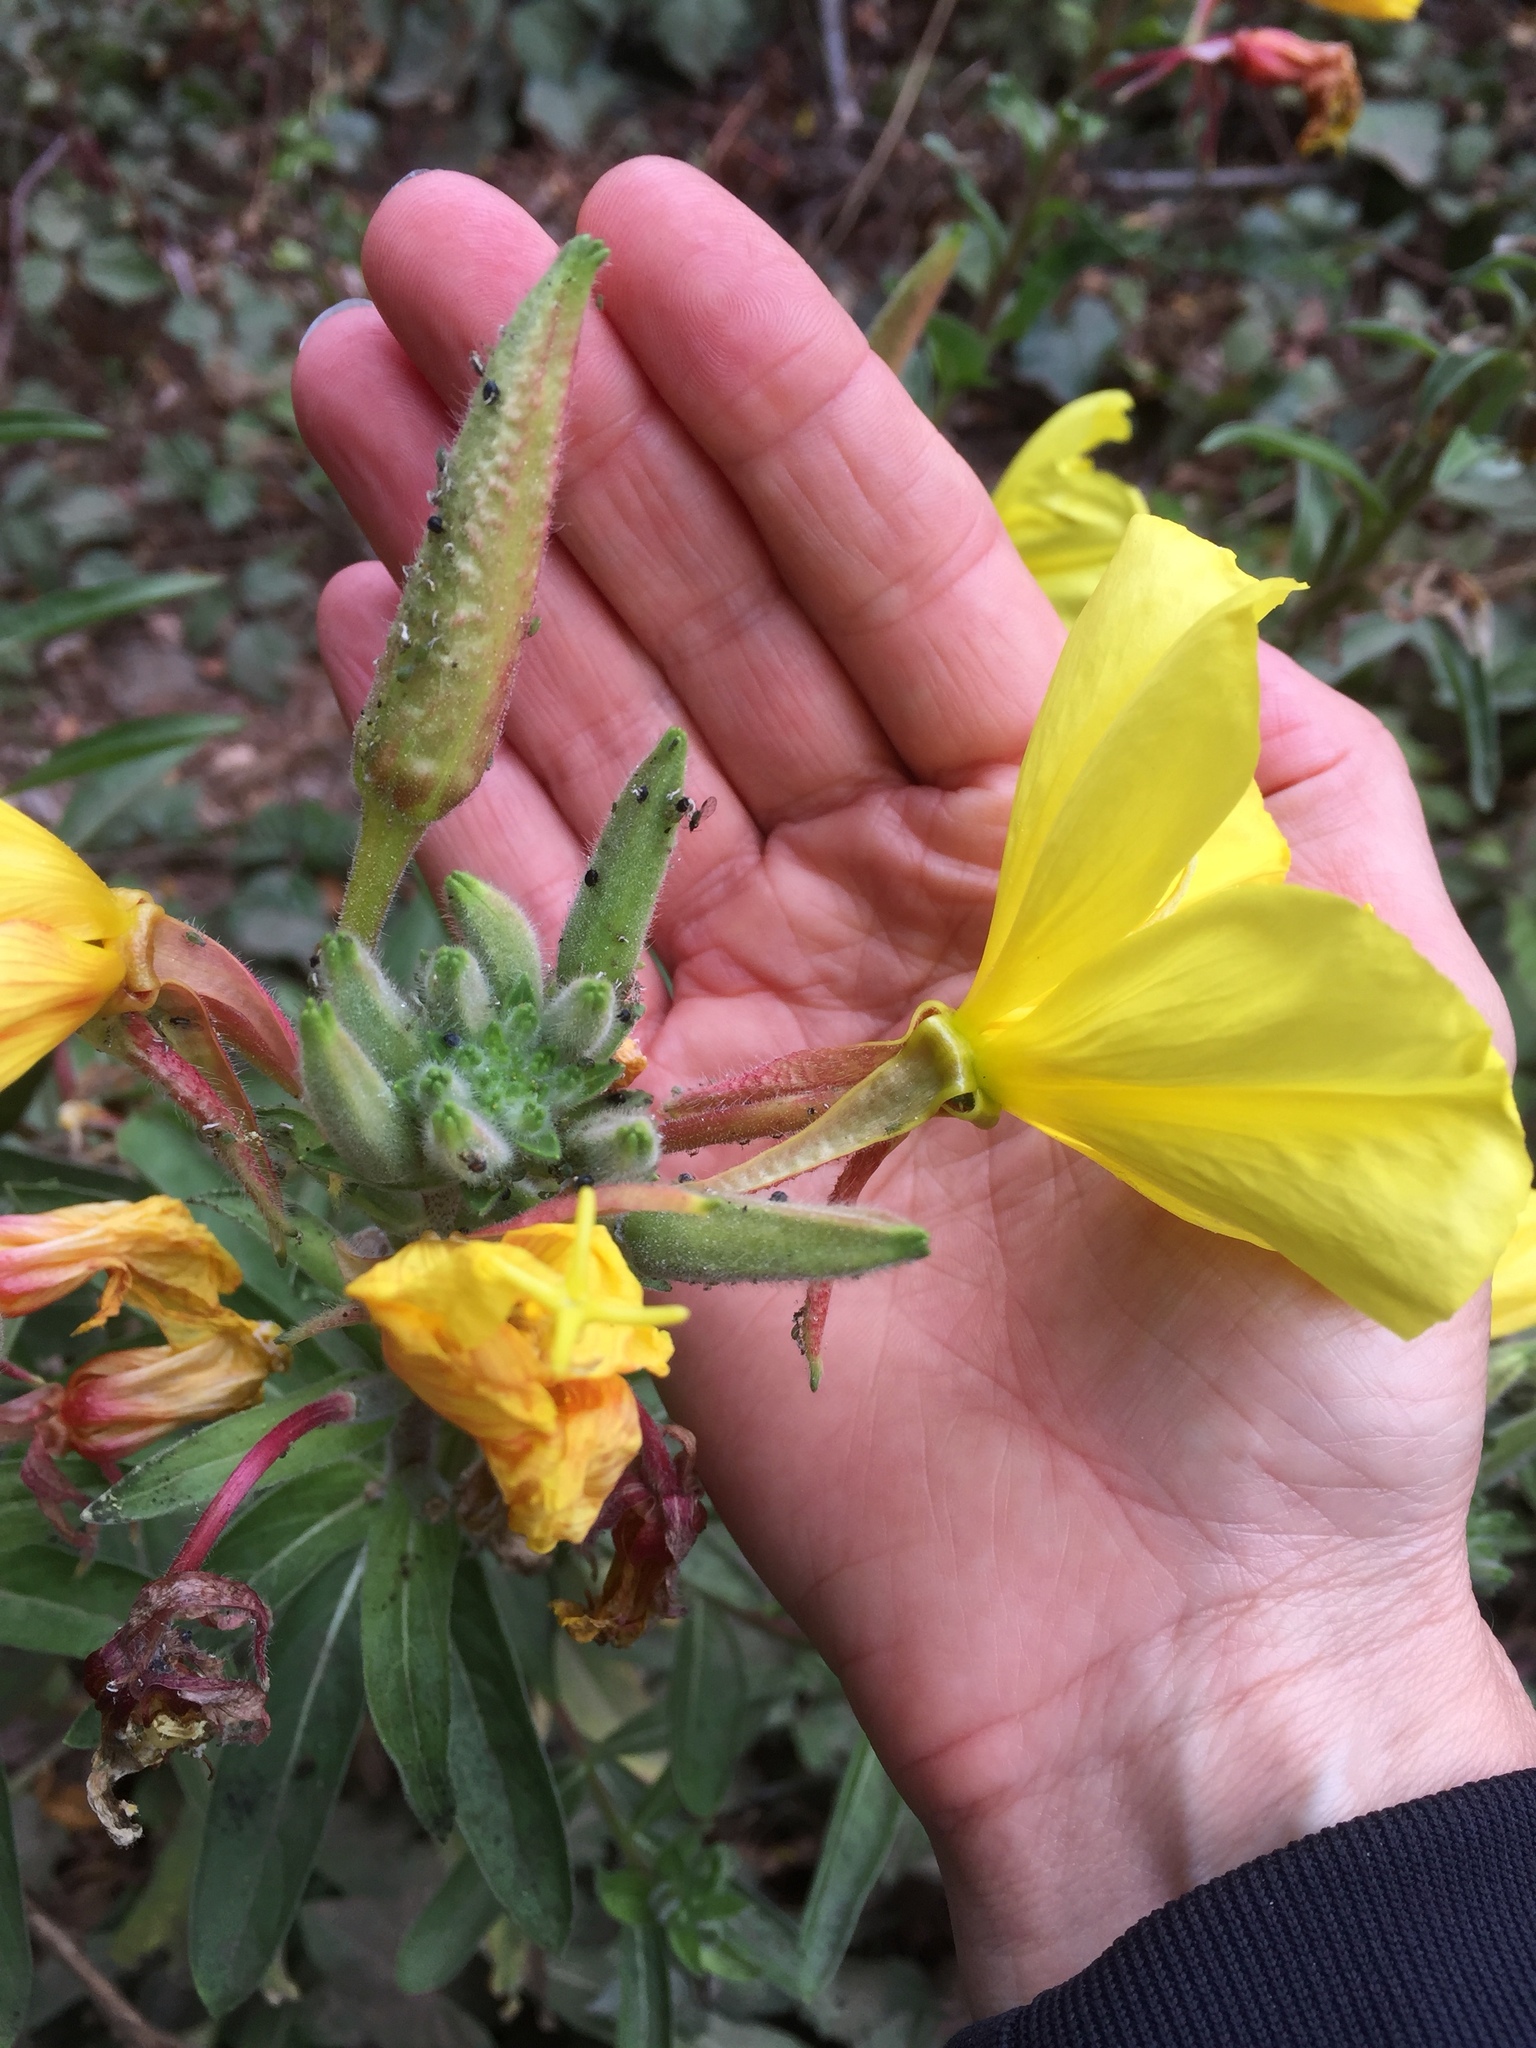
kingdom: Plantae
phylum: Tracheophyta
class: Magnoliopsida
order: Myrtales
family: Onagraceae
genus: Oenothera
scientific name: Oenothera elata
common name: Hooker's evening-primrose
